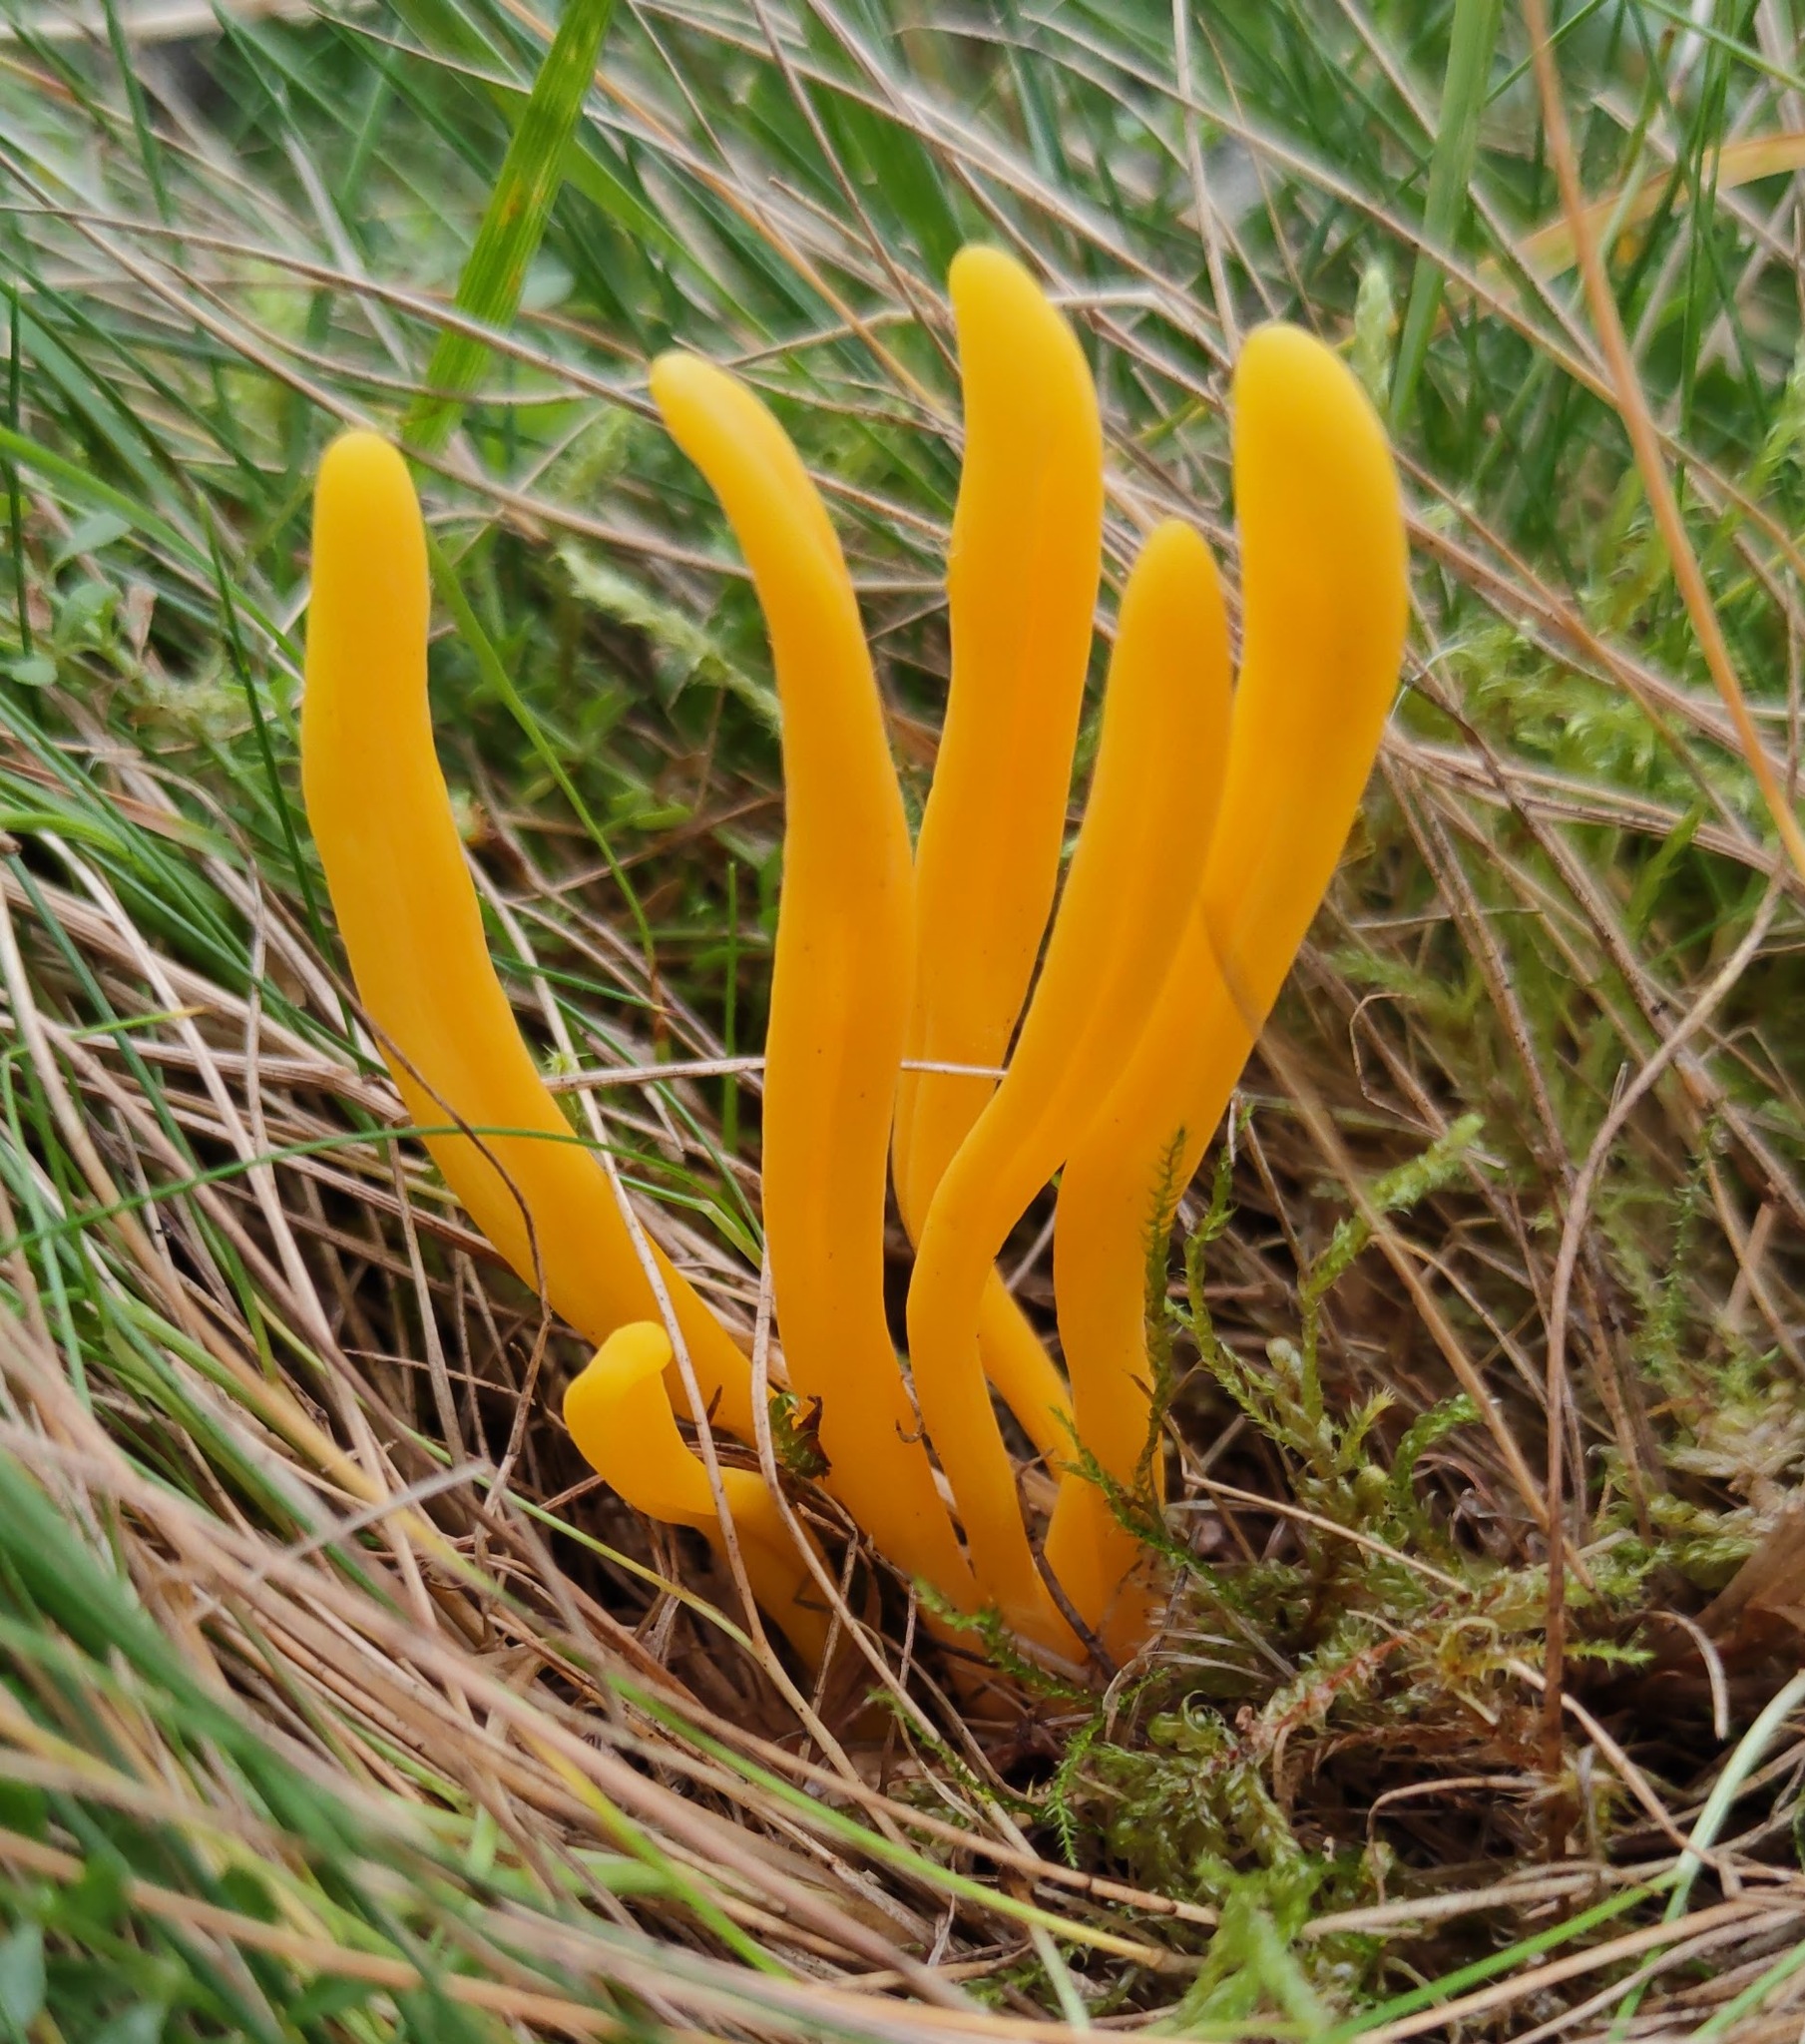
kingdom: Fungi
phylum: Basidiomycota
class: Agaricomycetes
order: Agaricales
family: Clavariaceae
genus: Clavulinopsis
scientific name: Clavulinopsis fusiformis
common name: Golden spindles
